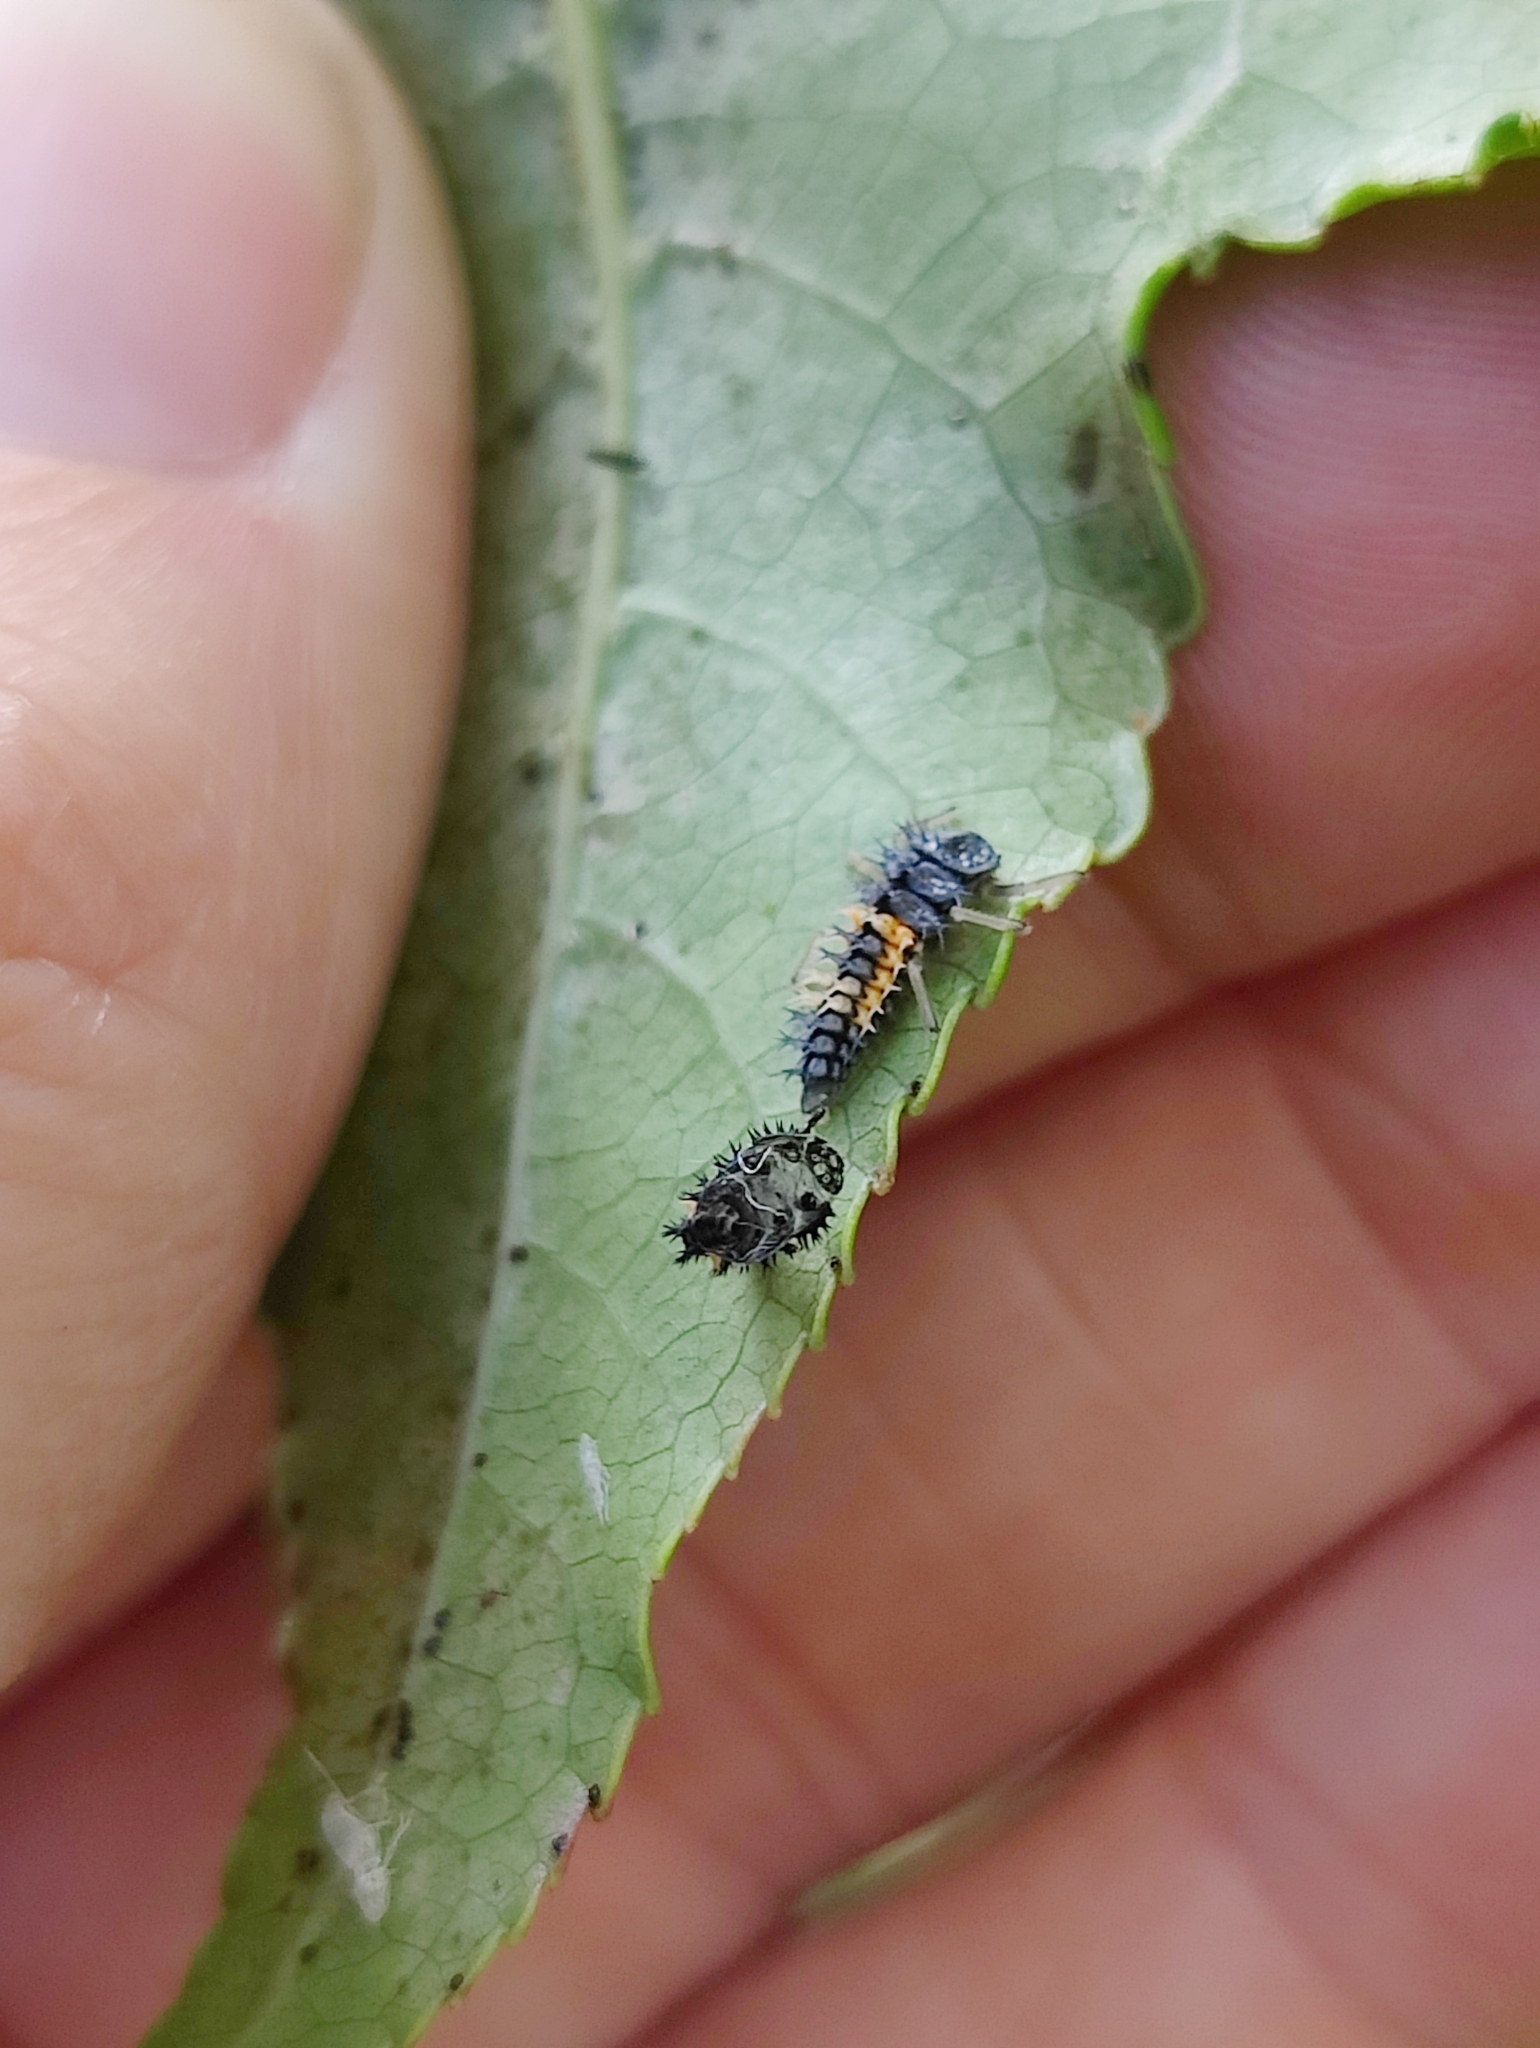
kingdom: Animalia
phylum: Arthropoda
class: Insecta
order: Coleoptera
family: Coccinellidae
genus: Harmonia
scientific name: Harmonia axyridis
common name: Harlequin ladybird
